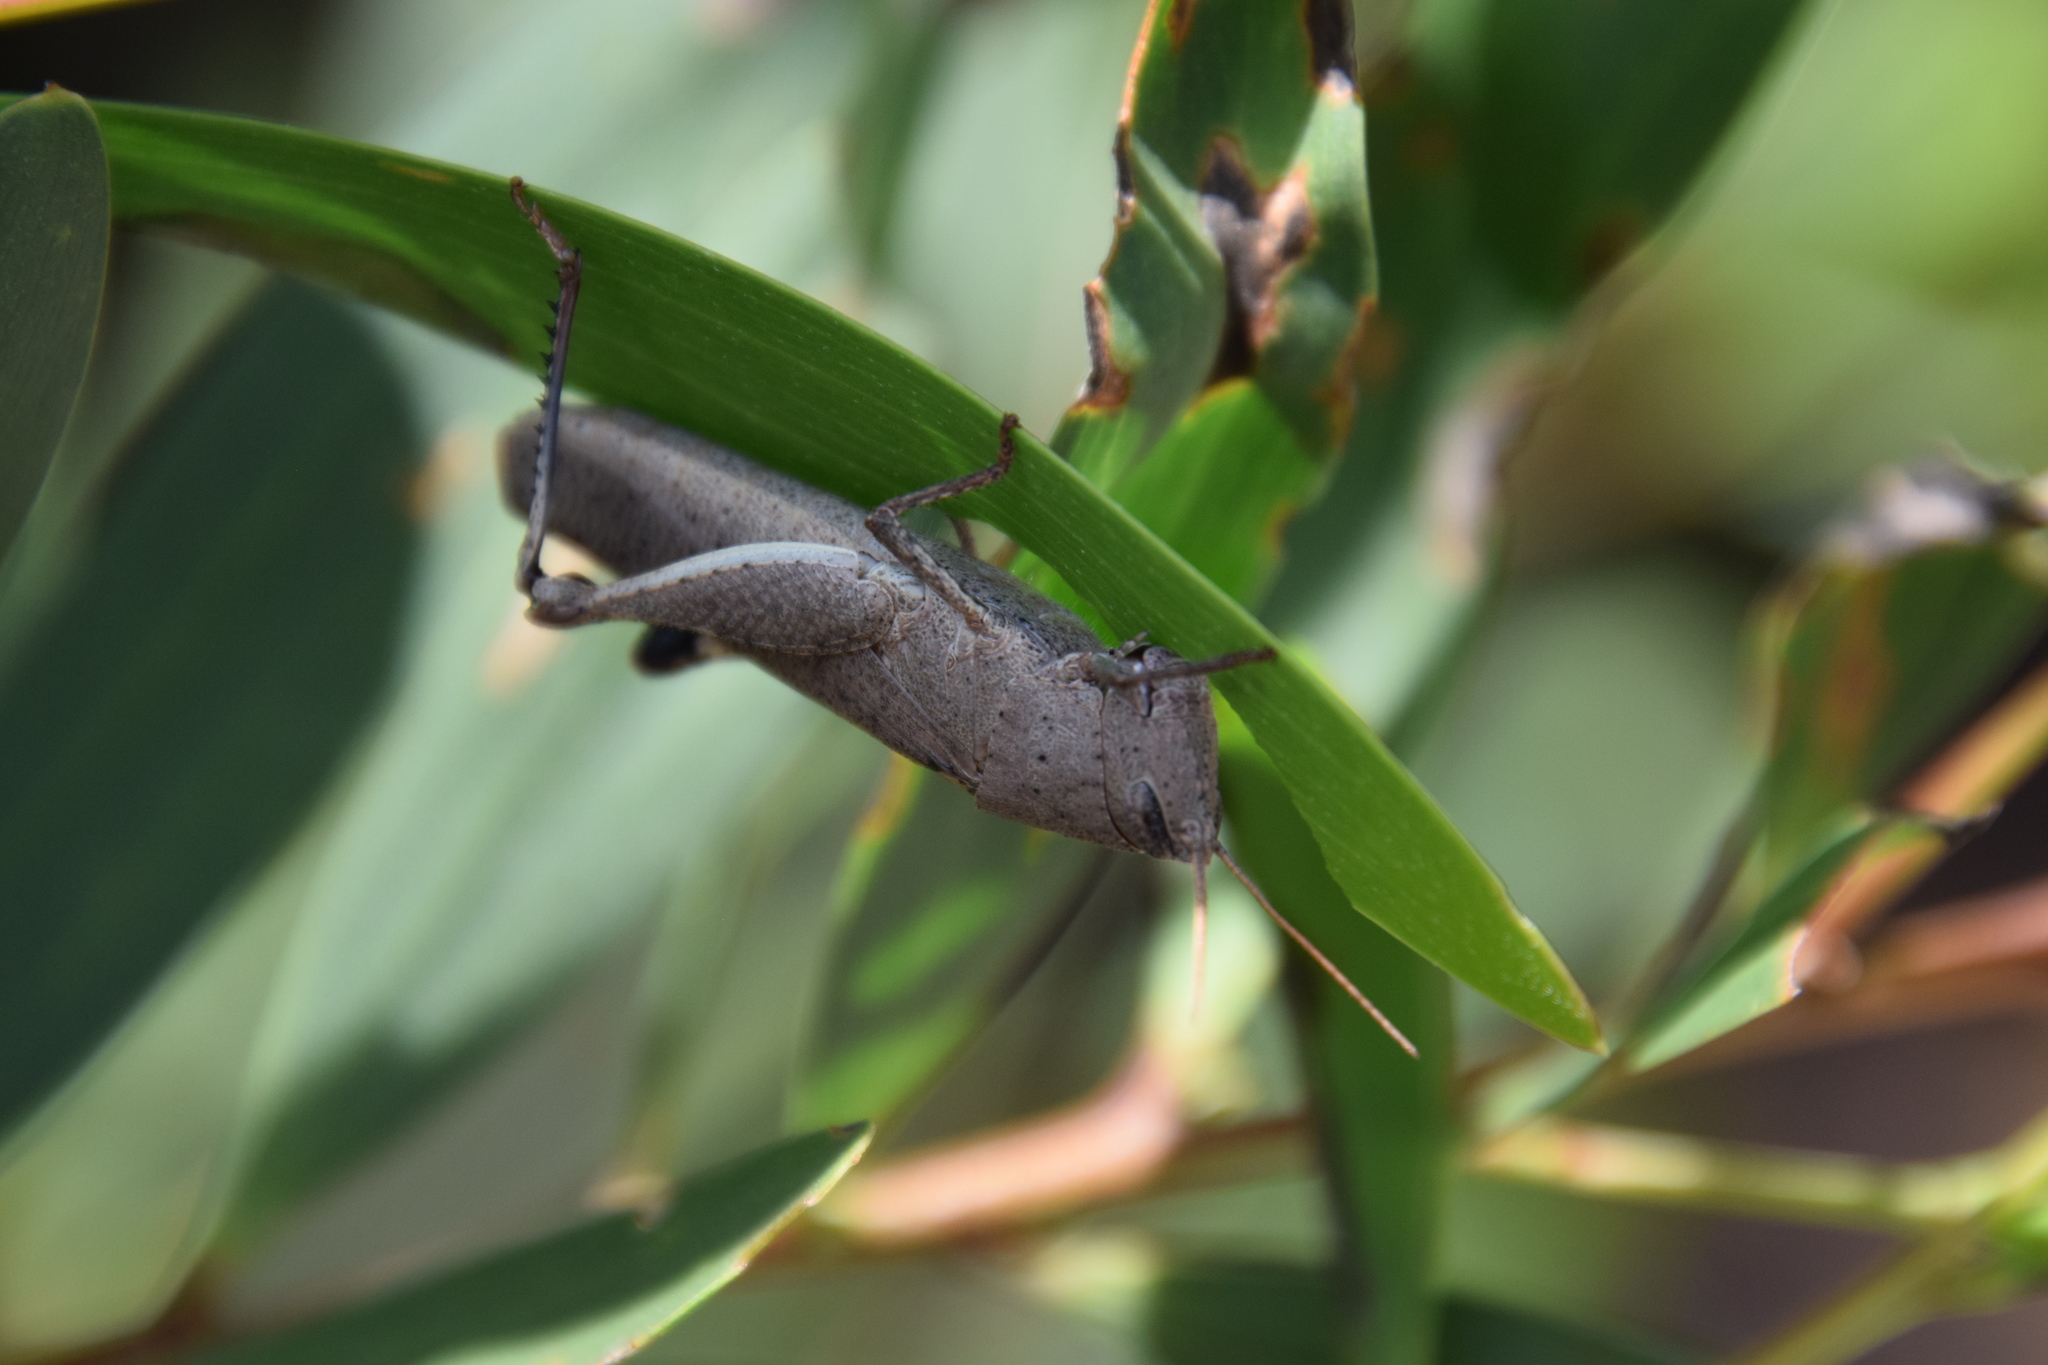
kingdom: Animalia
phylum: Arthropoda
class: Insecta
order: Orthoptera
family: Acrididae
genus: Goniaea
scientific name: Goniaea opomaloides
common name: Mimetic gumleaf grasshopper
